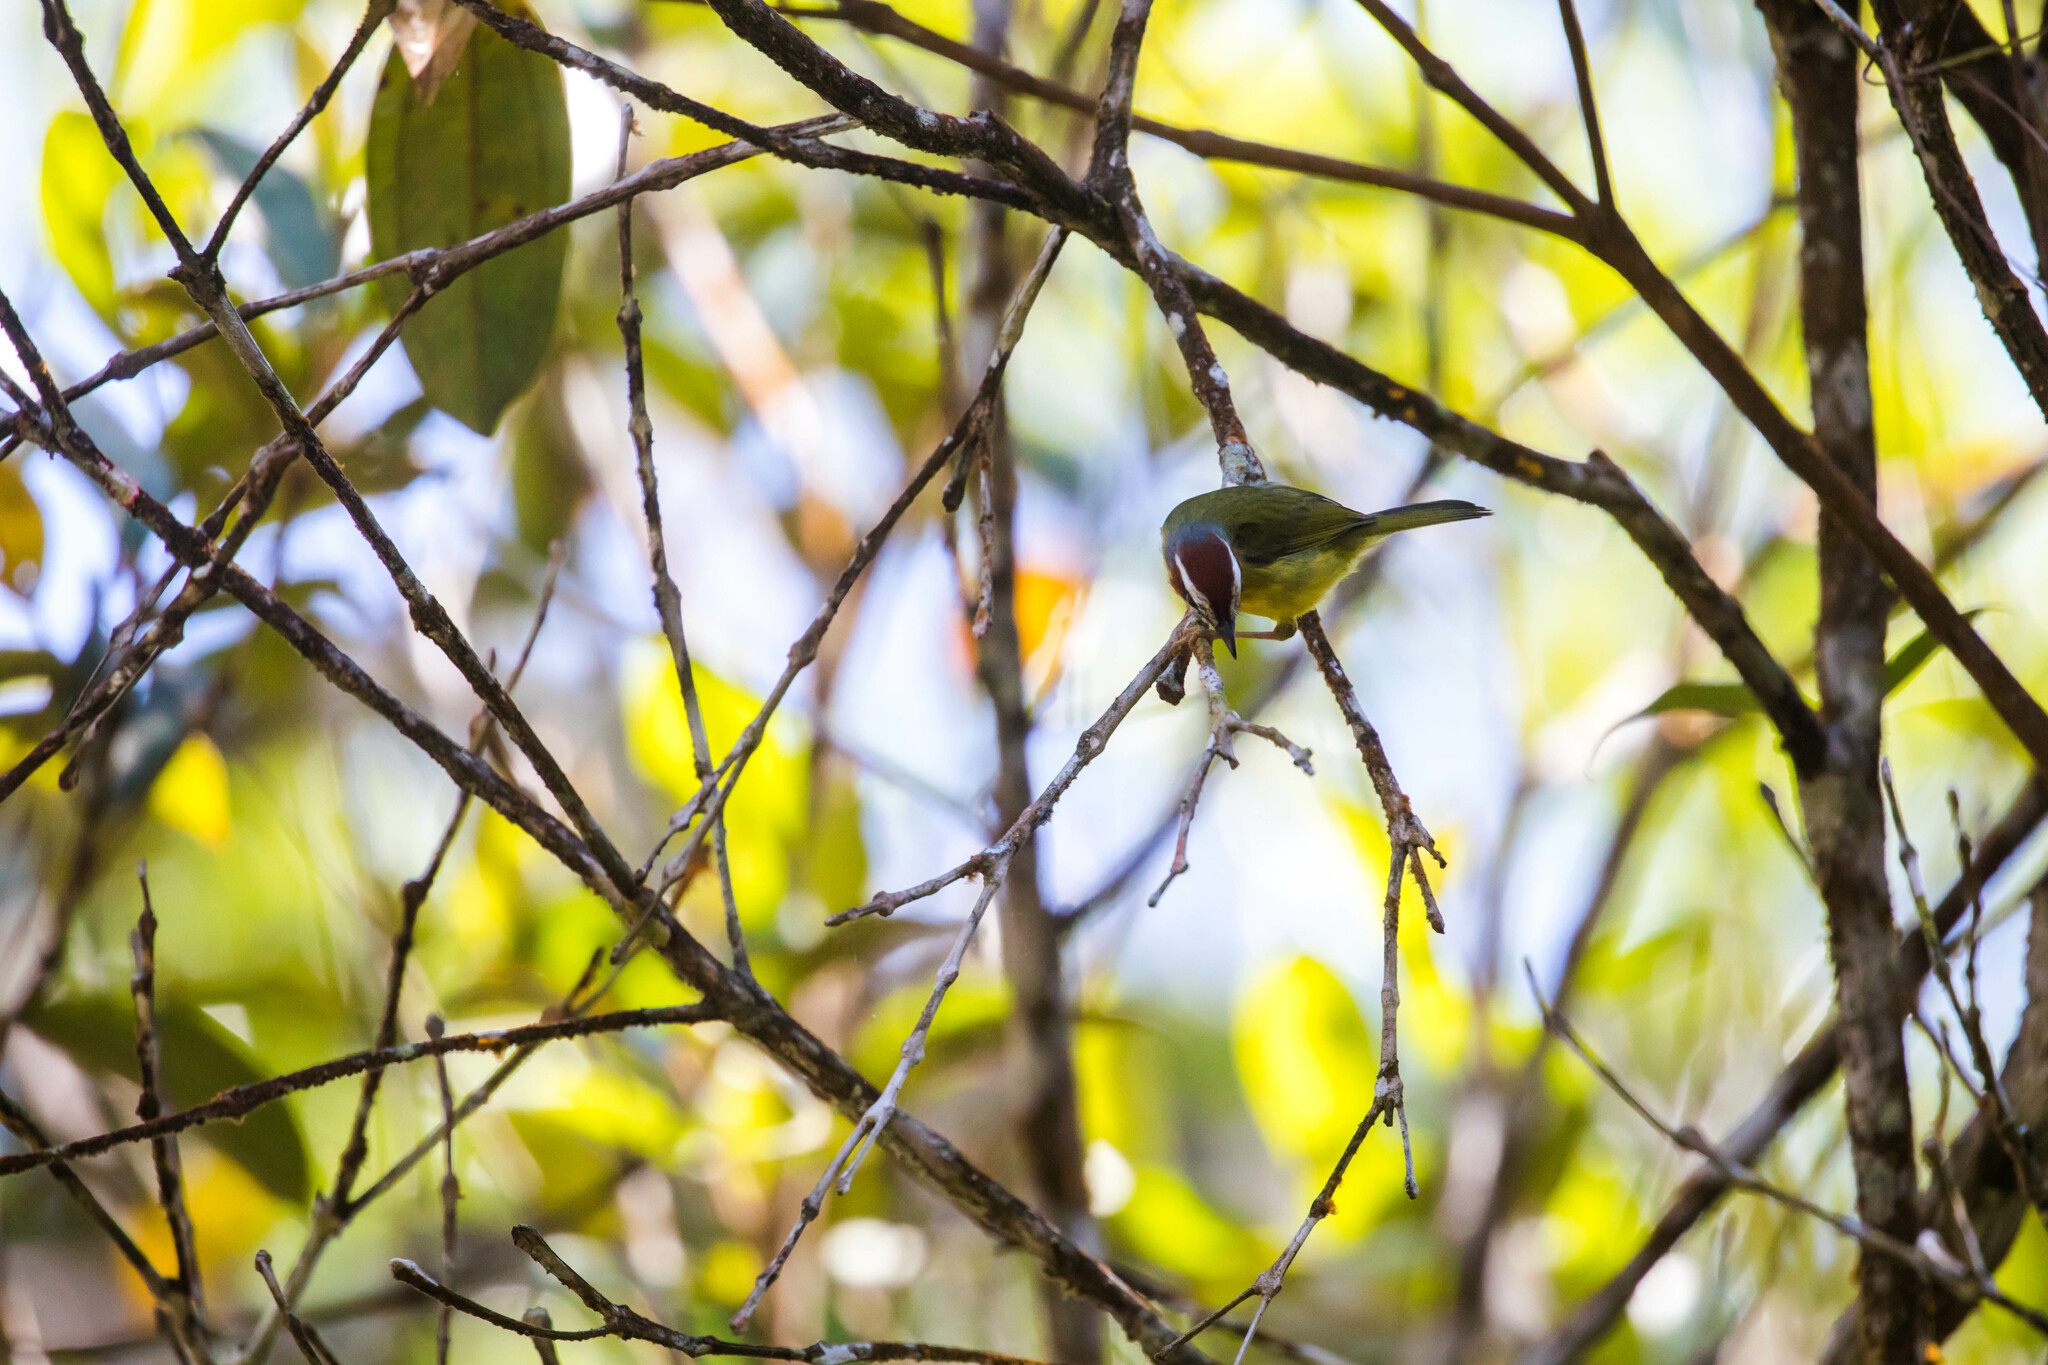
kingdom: Animalia
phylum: Chordata
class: Aves
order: Passeriformes
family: Parulidae
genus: Basileuterus
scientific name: Basileuterus rufifrons
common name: Rufous-capped warbler
